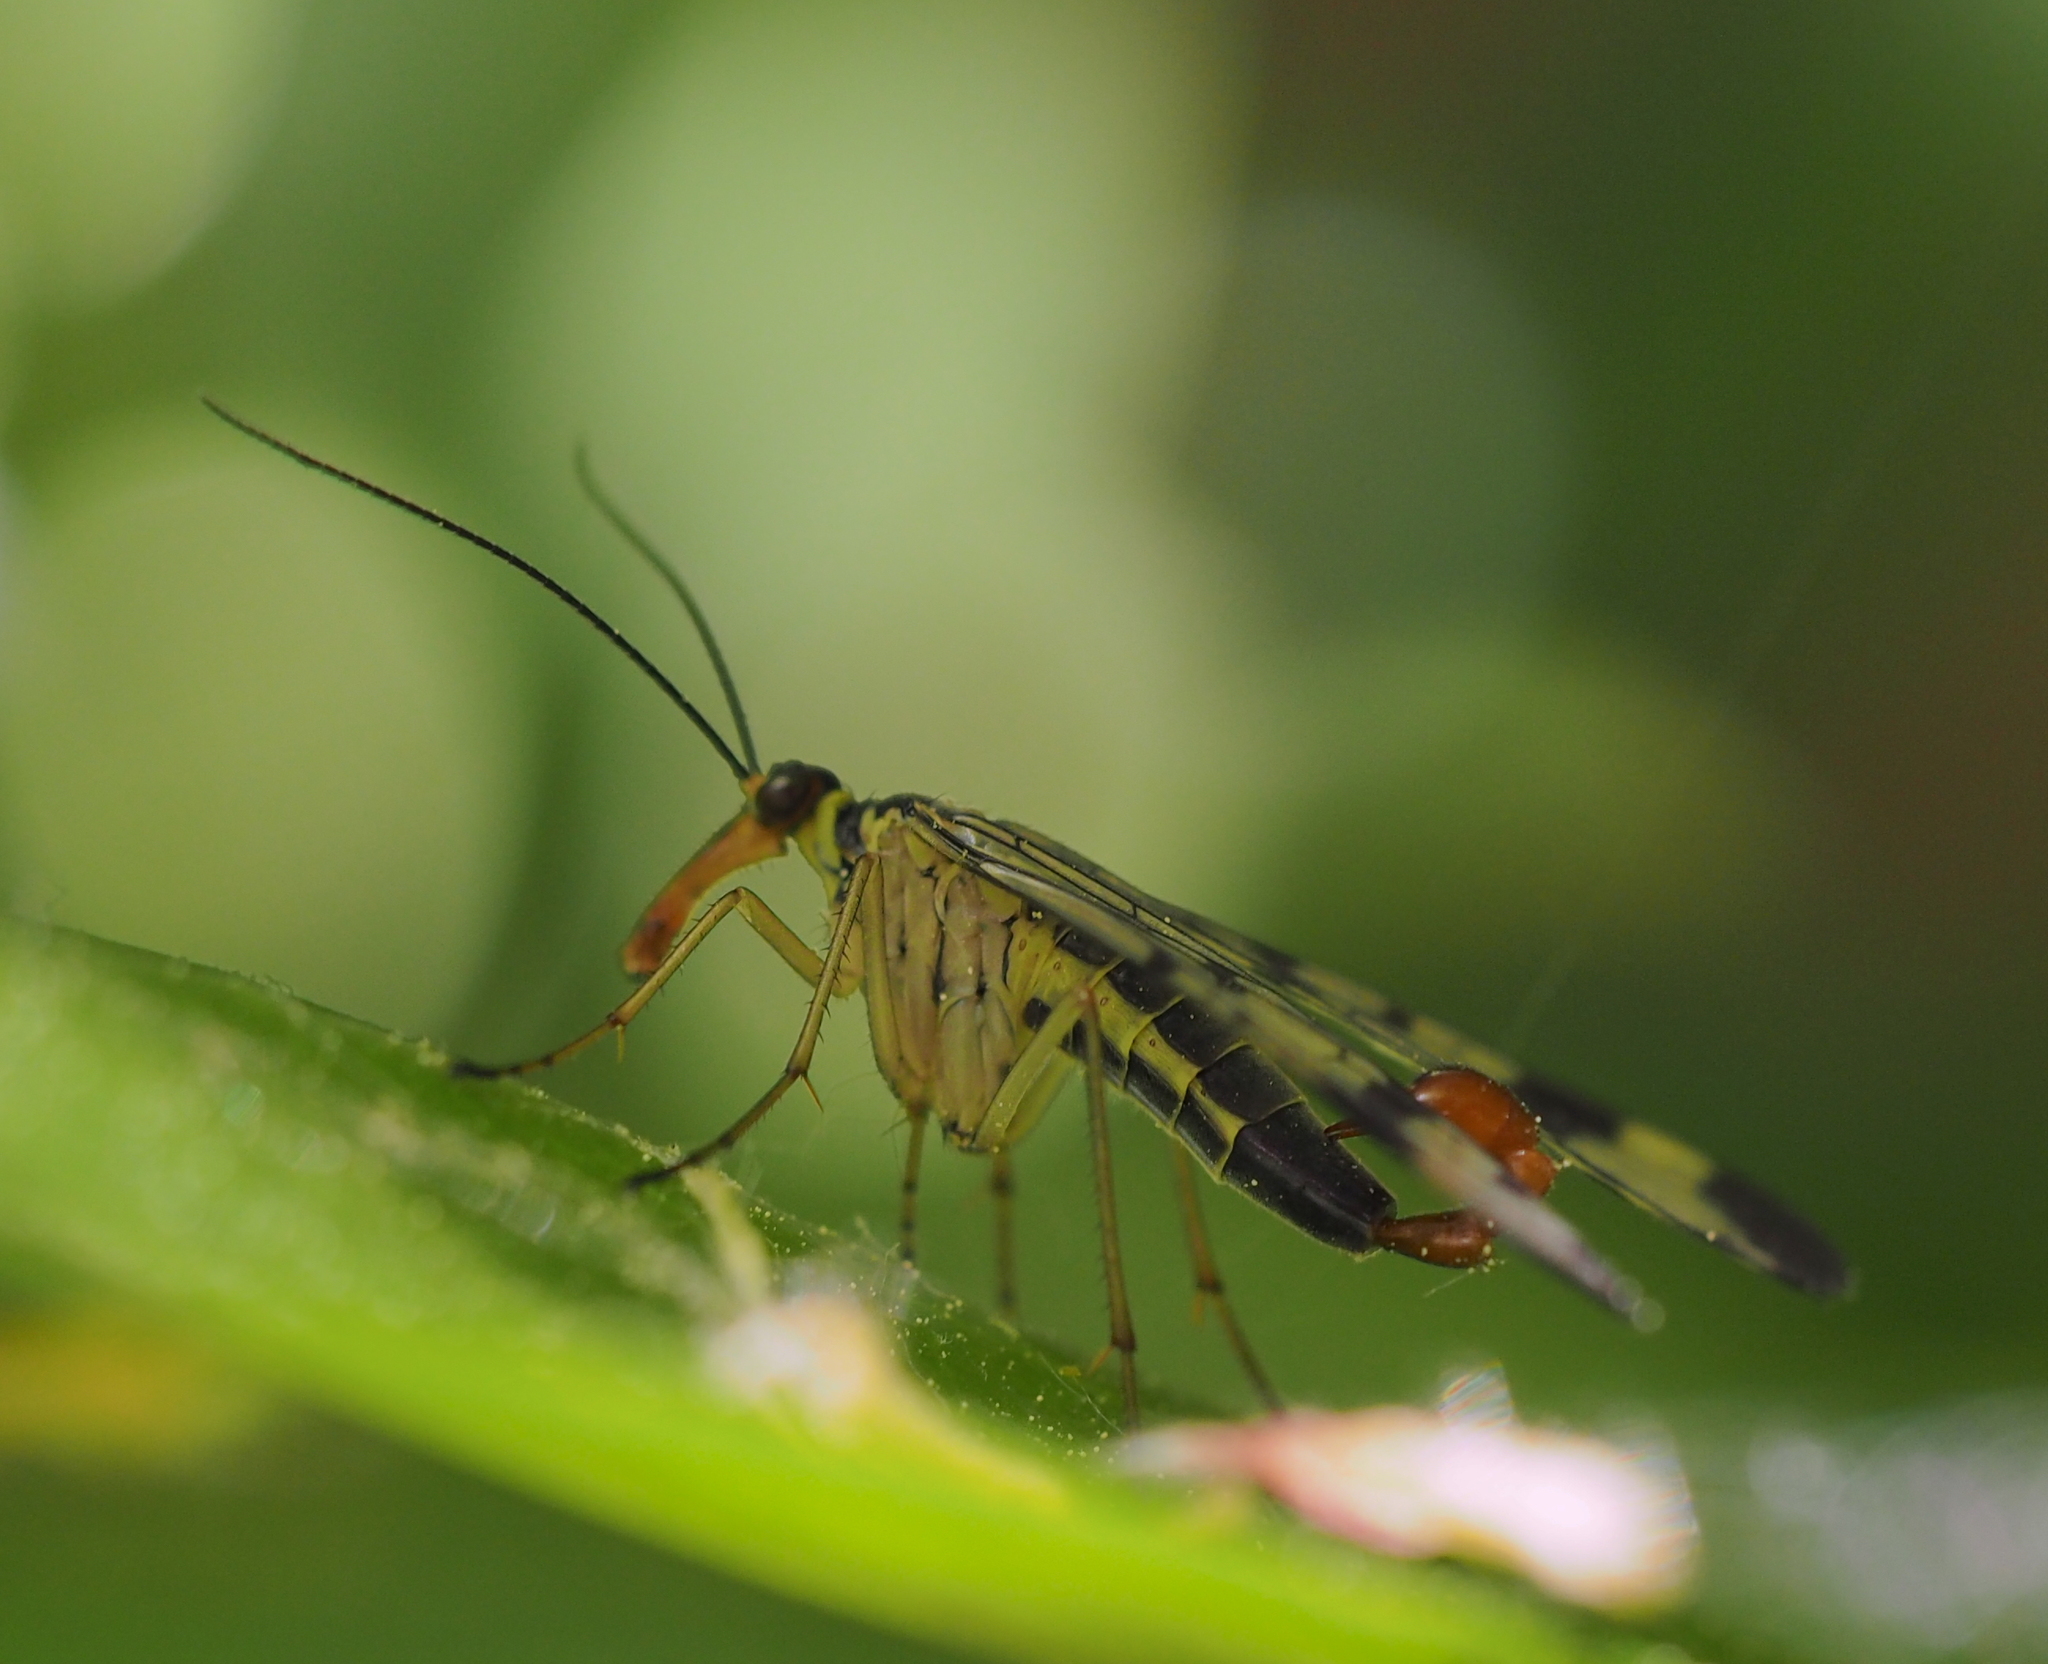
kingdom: Animalia
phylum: Arthropoda
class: Insecta
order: Mecoptera
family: Panorpidae
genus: Panorpa
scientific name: Panorpa communis
